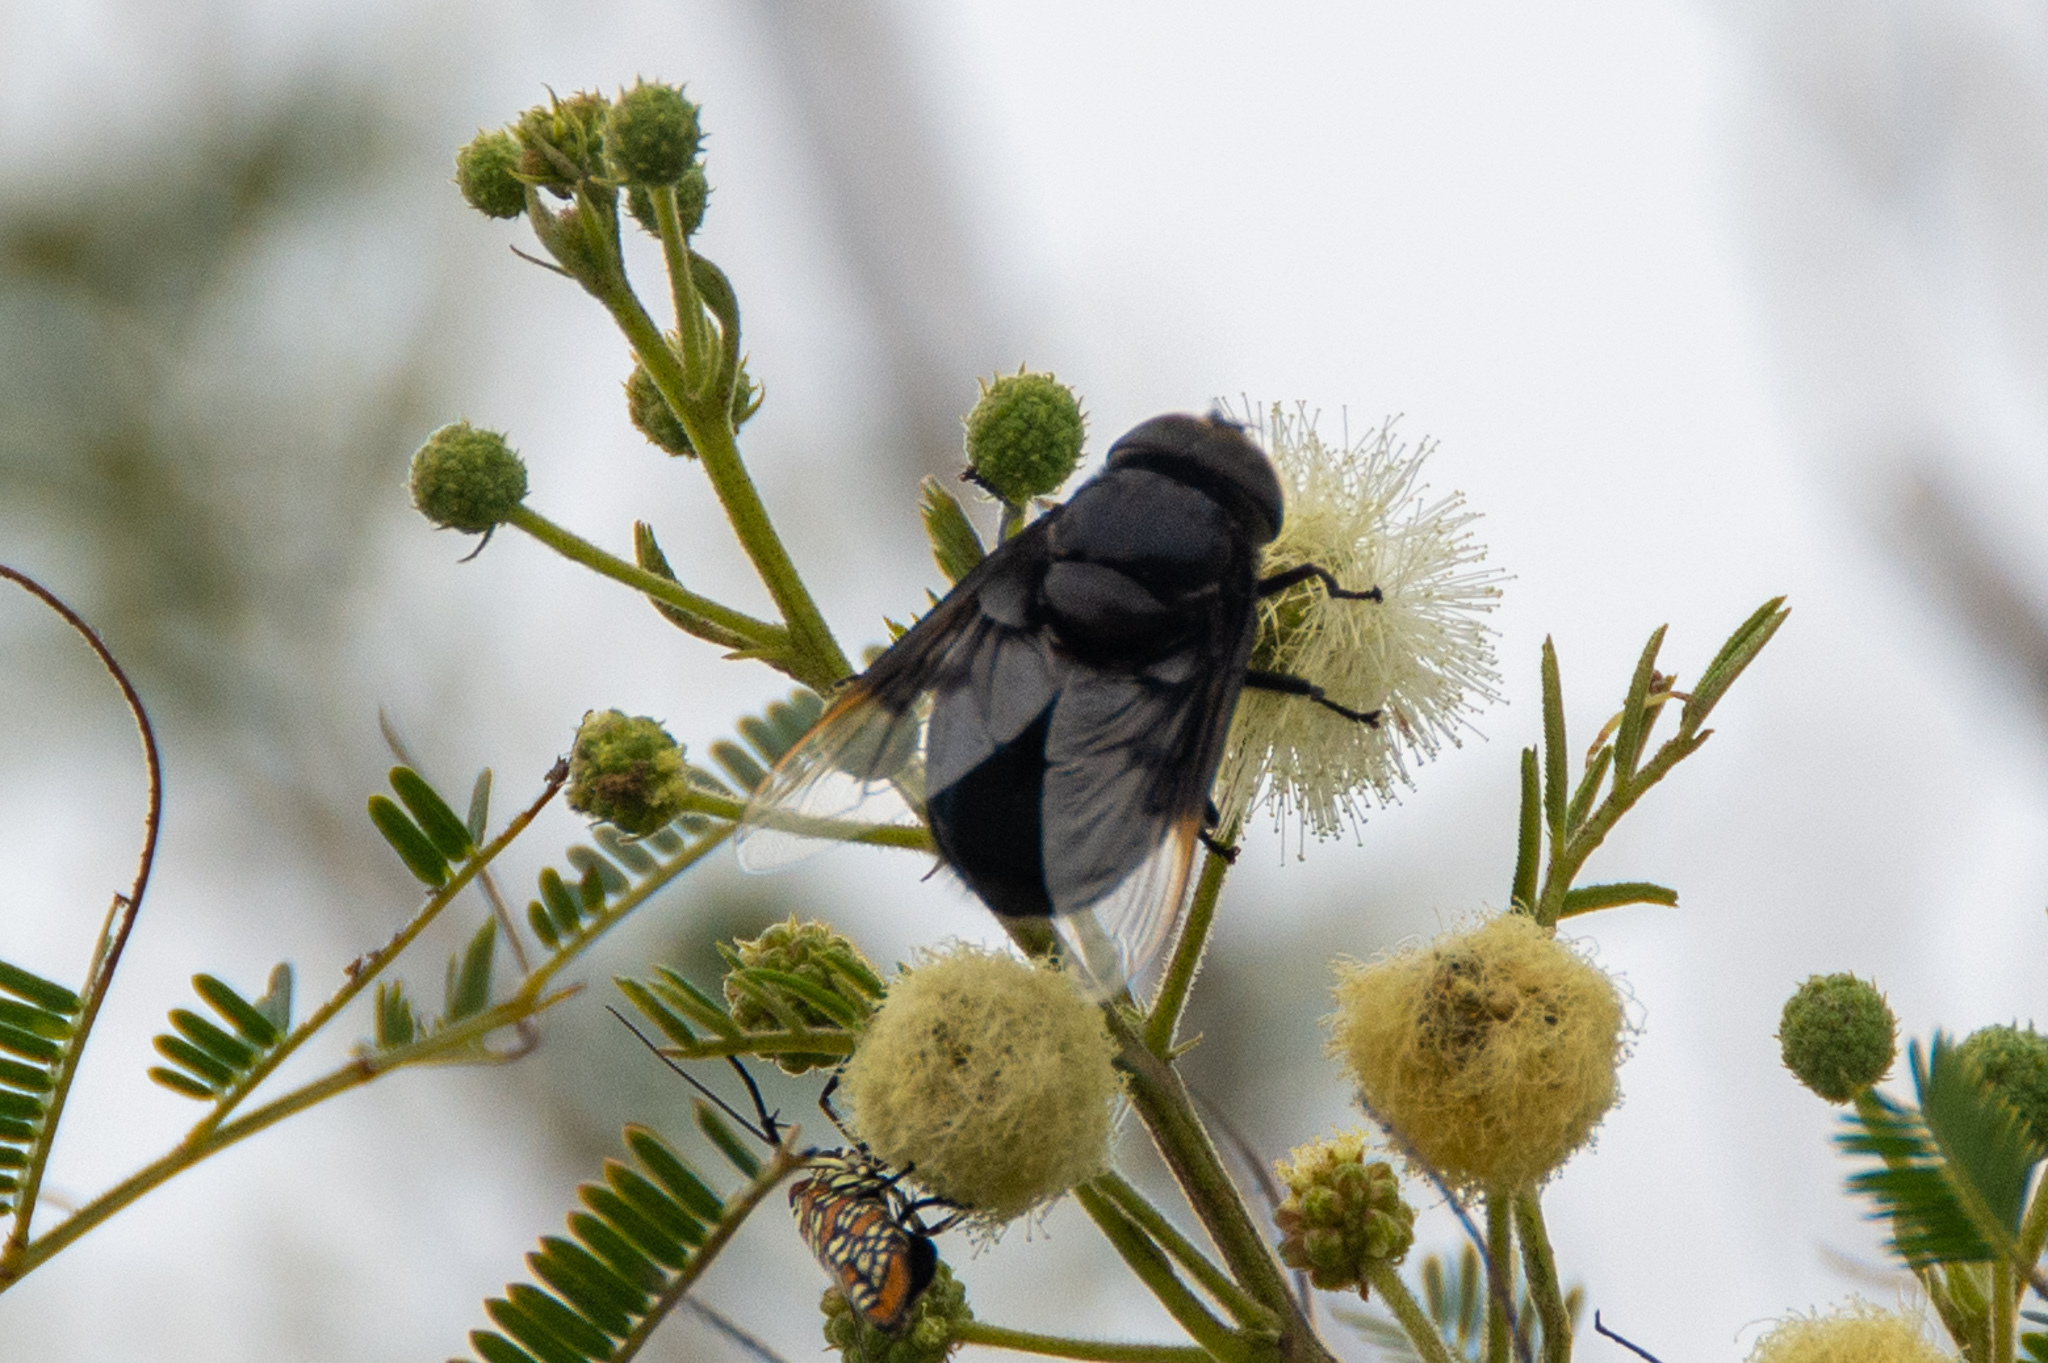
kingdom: Animalia
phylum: Arthropoda
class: Insecta
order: Diptera
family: Syrphidae
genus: Copestylum
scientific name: Copestylum mexicanum
